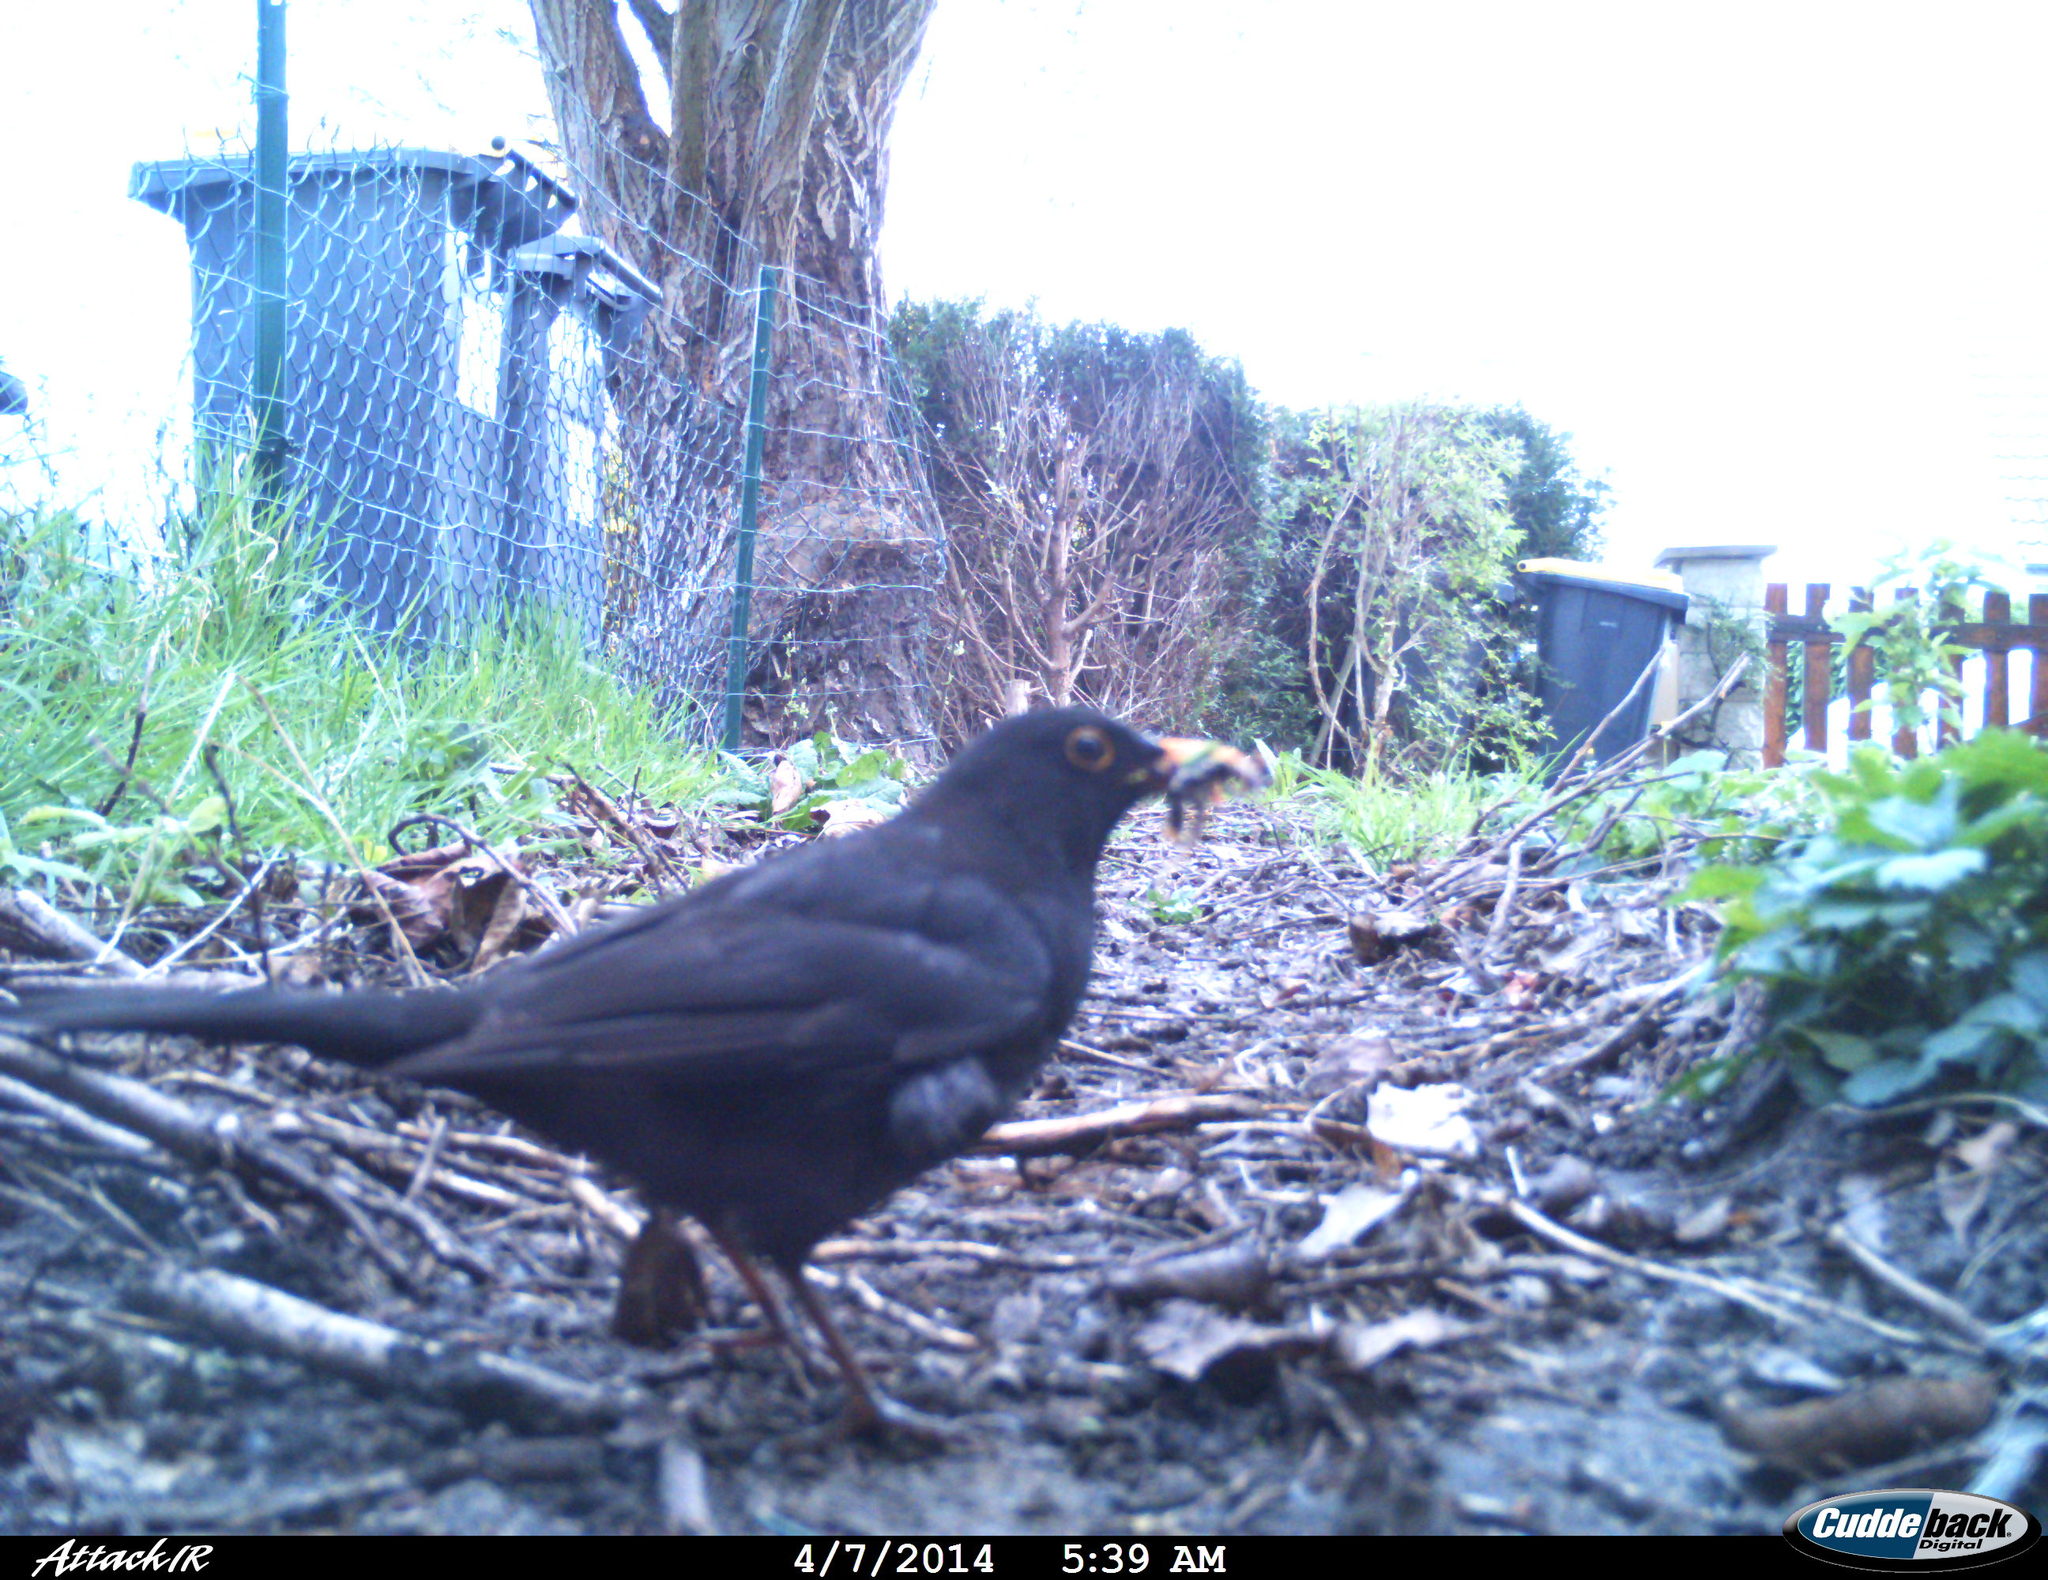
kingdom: Animalia
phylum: Chordata
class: Aves
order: Passeriformes
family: Turdidae
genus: Turdus
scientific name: Turdus merula
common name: Common blackbird
